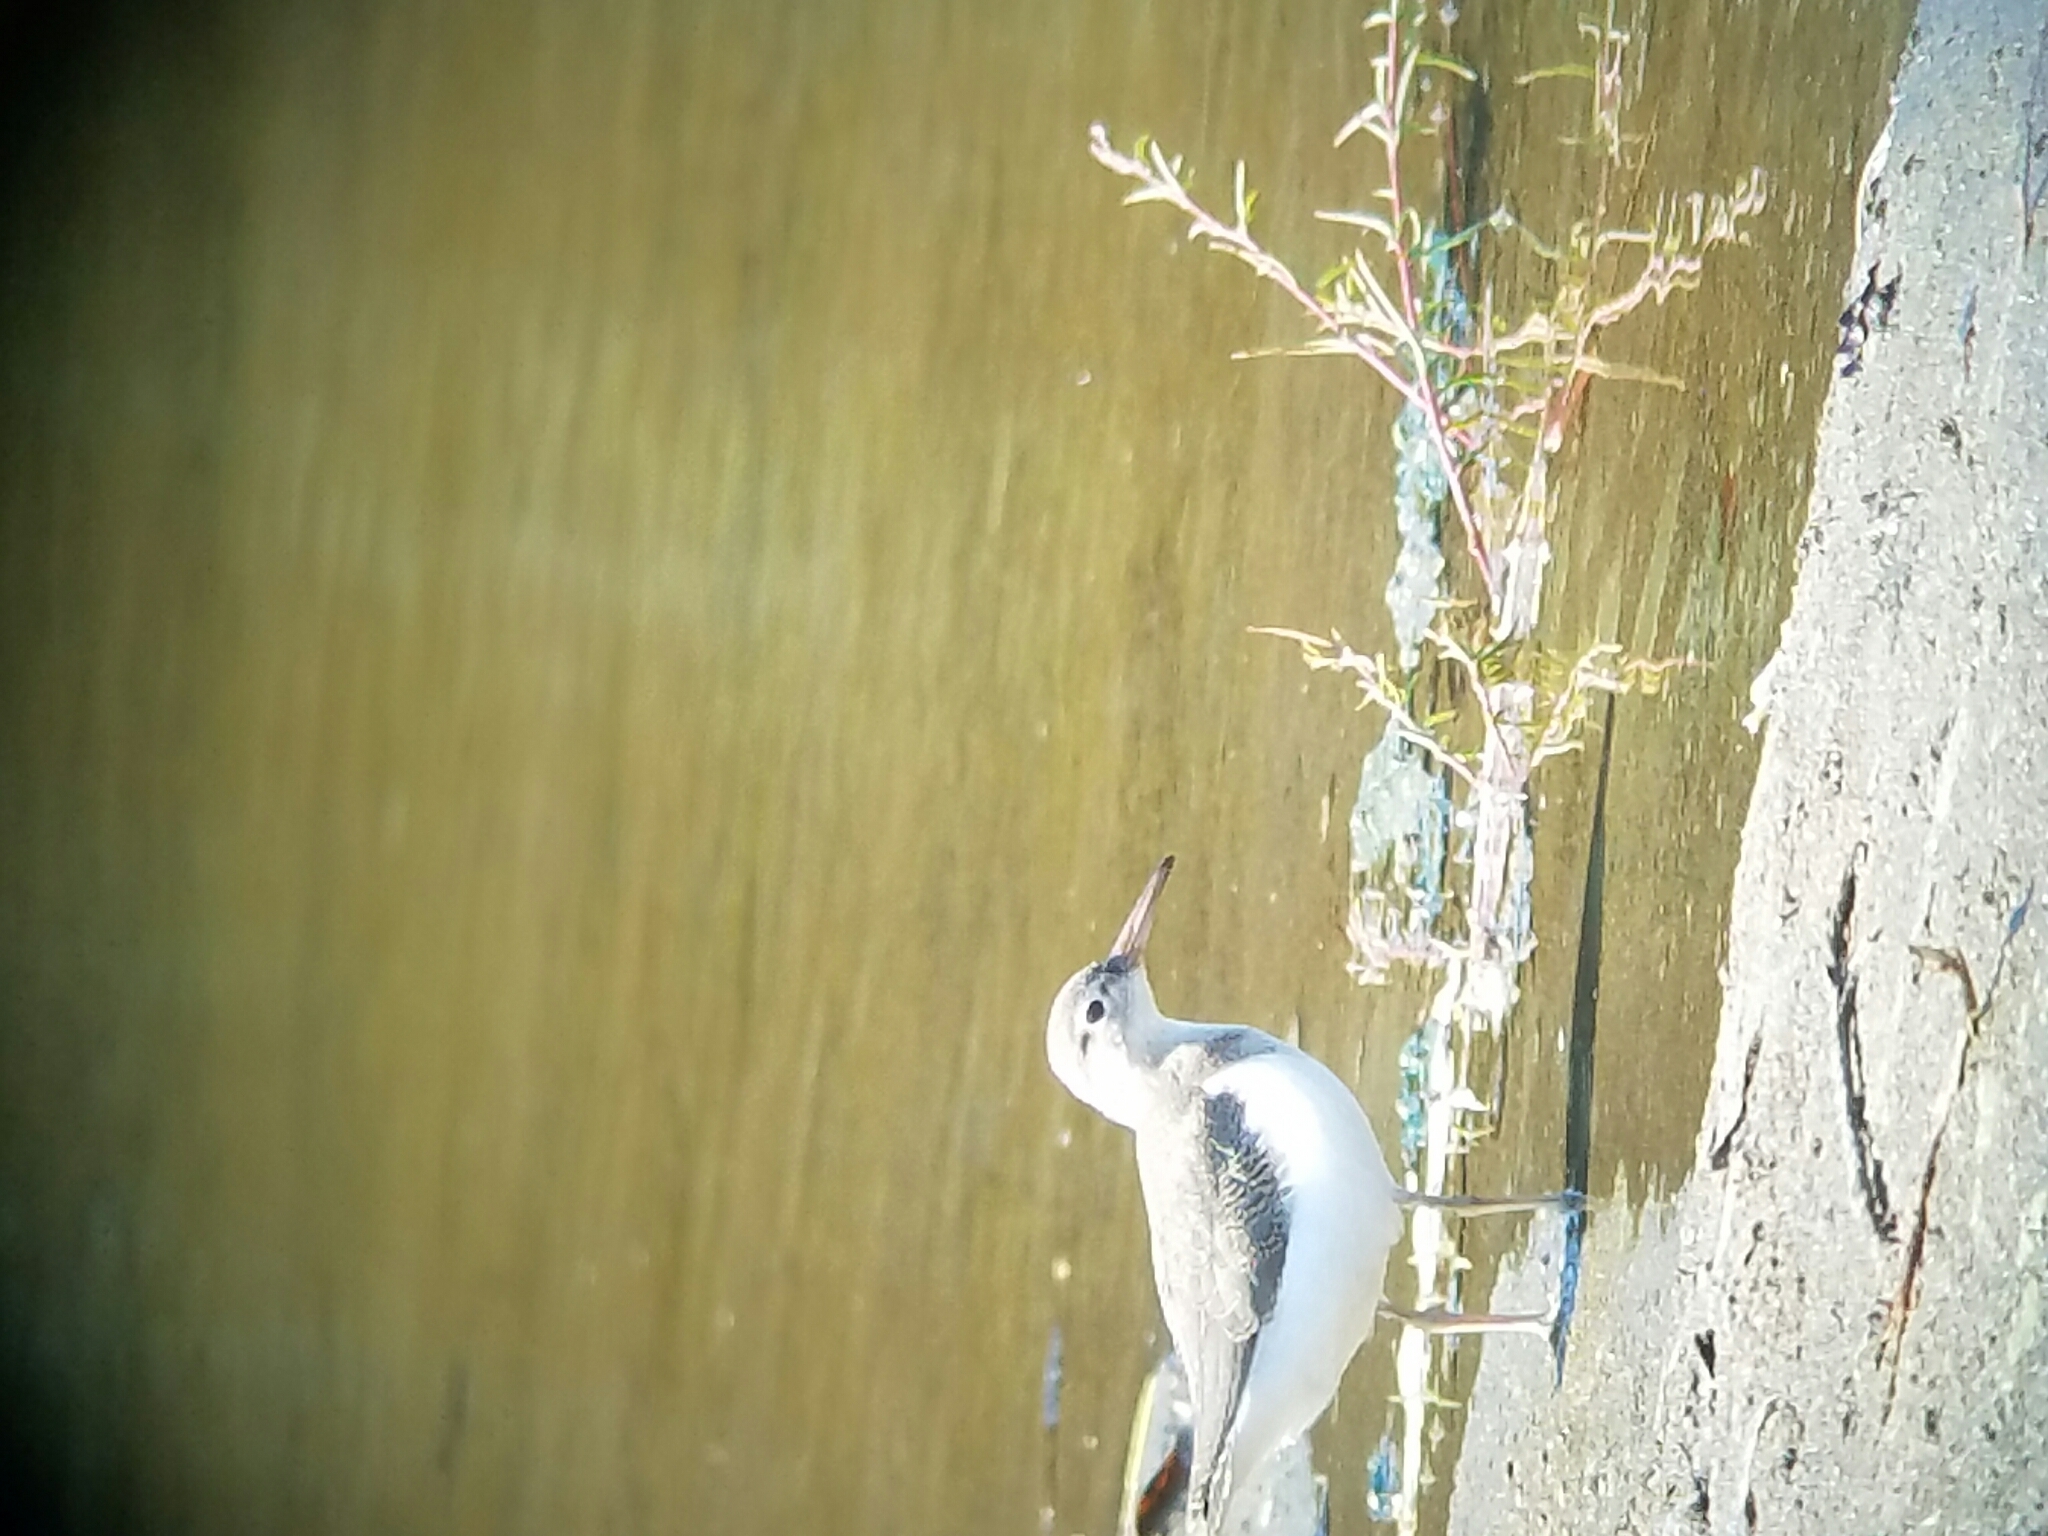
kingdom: Animalia
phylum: Chordata
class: Aves
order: Charadriiformes
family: Scolopacidae
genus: Actitis
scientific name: Actitis macularius
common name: Spotted sandpiper
